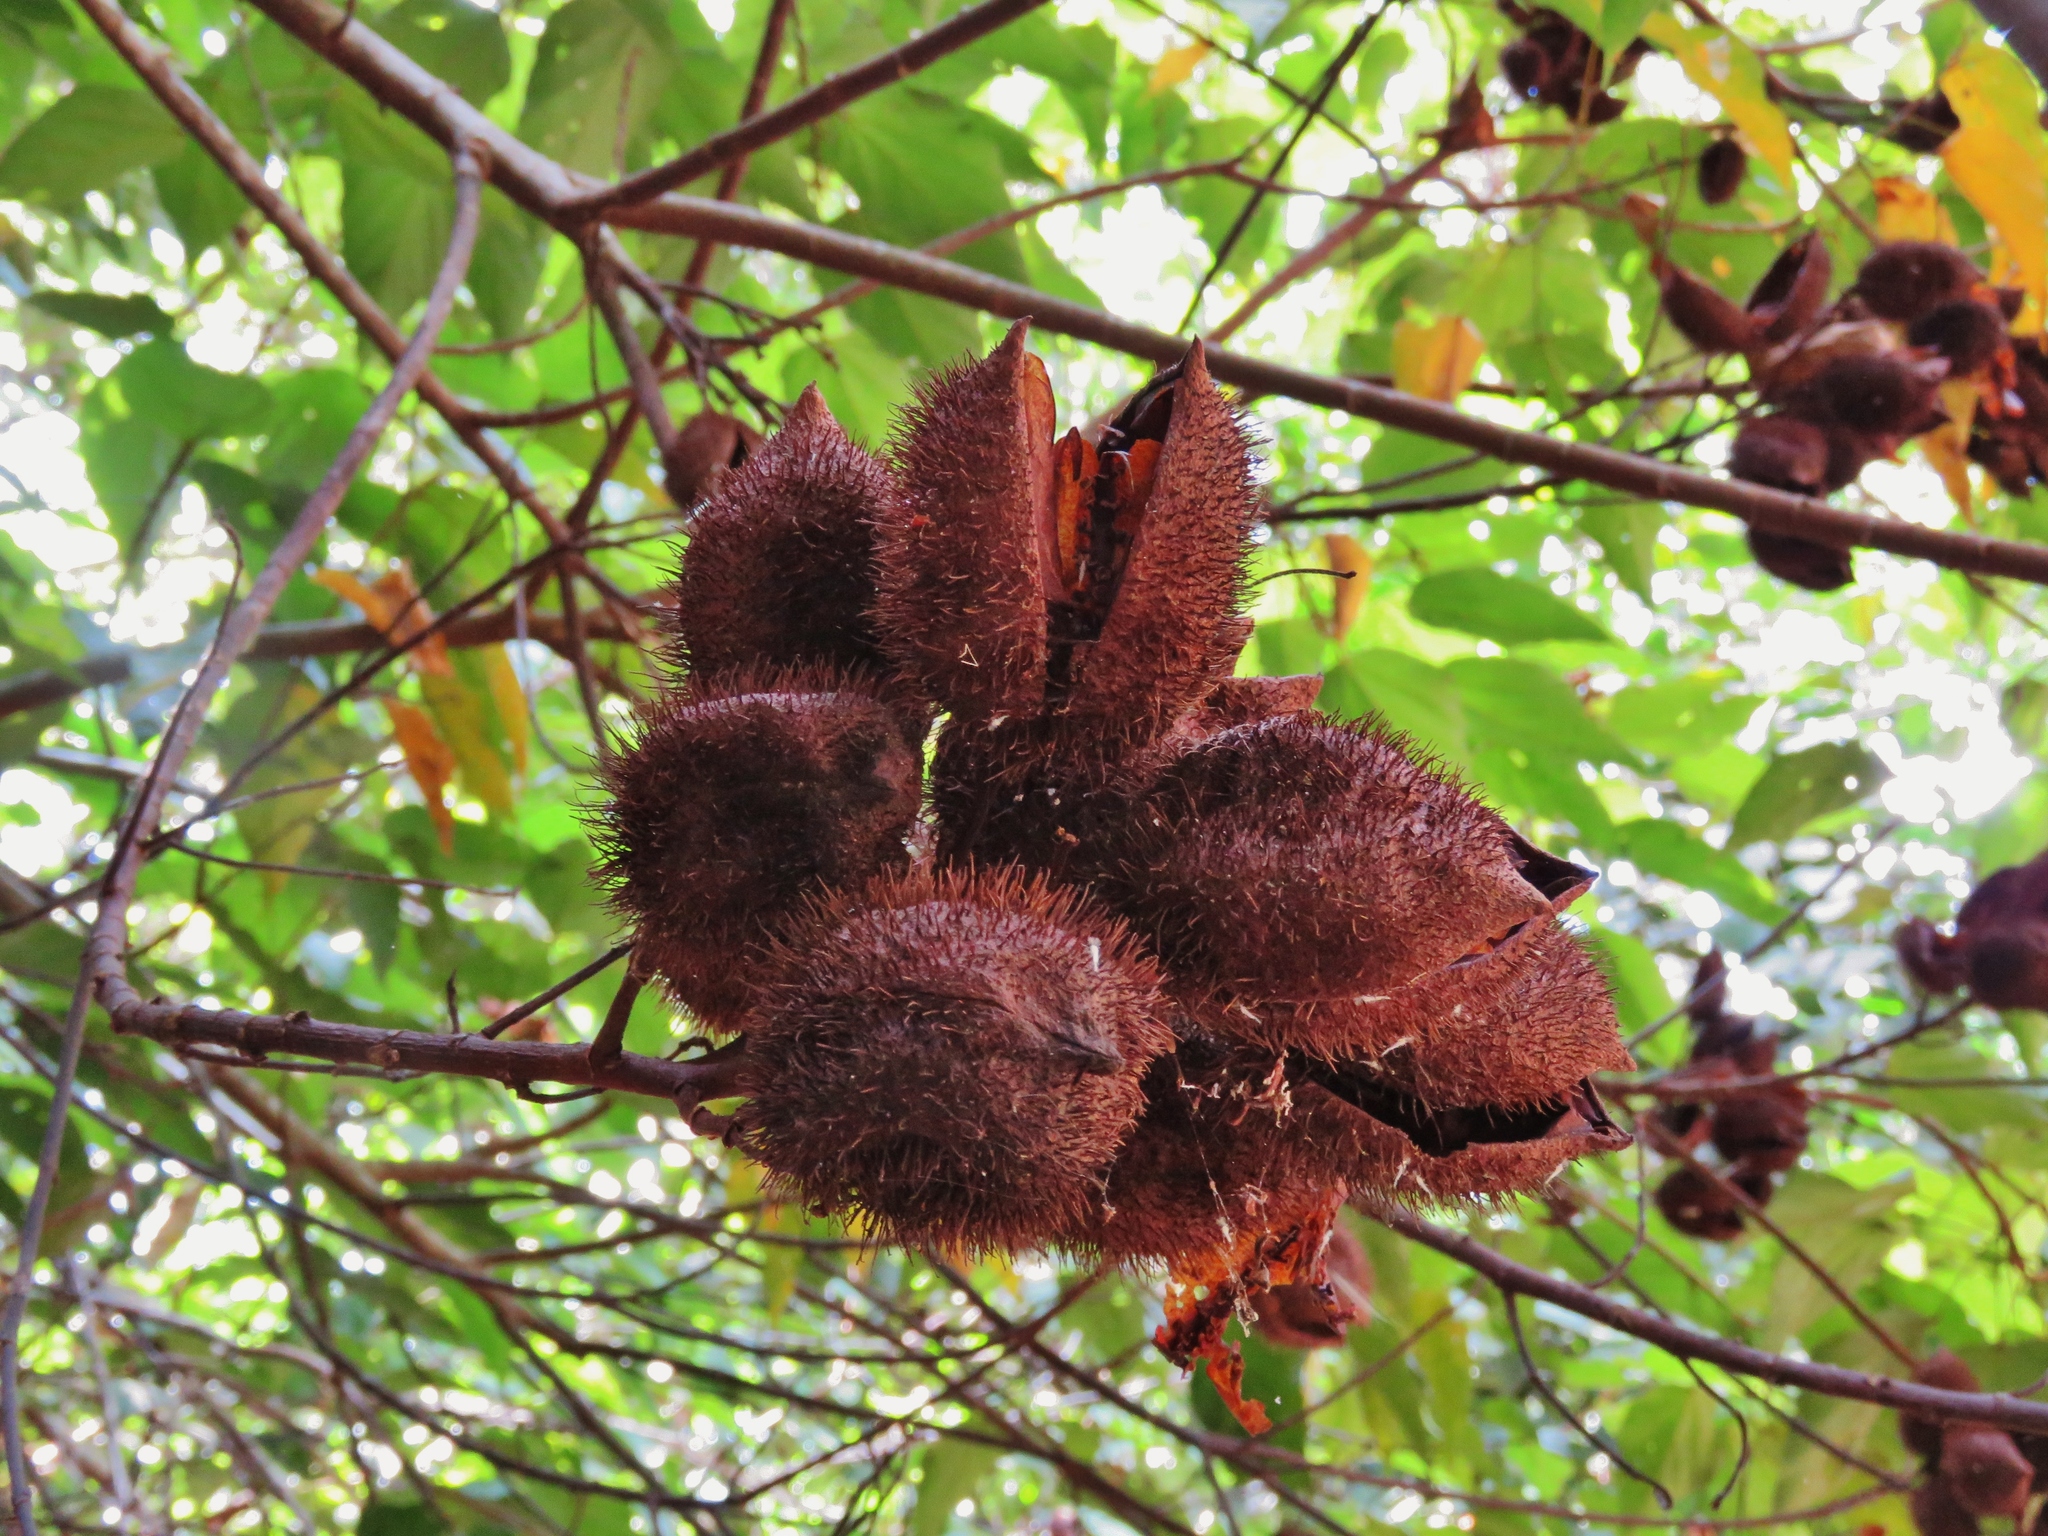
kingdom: Plantae
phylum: Tracheophyta
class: Magnoliopsida
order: Malvales
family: Bixaceae
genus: Bixa
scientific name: Bixa orellana
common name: Lipsticktree
